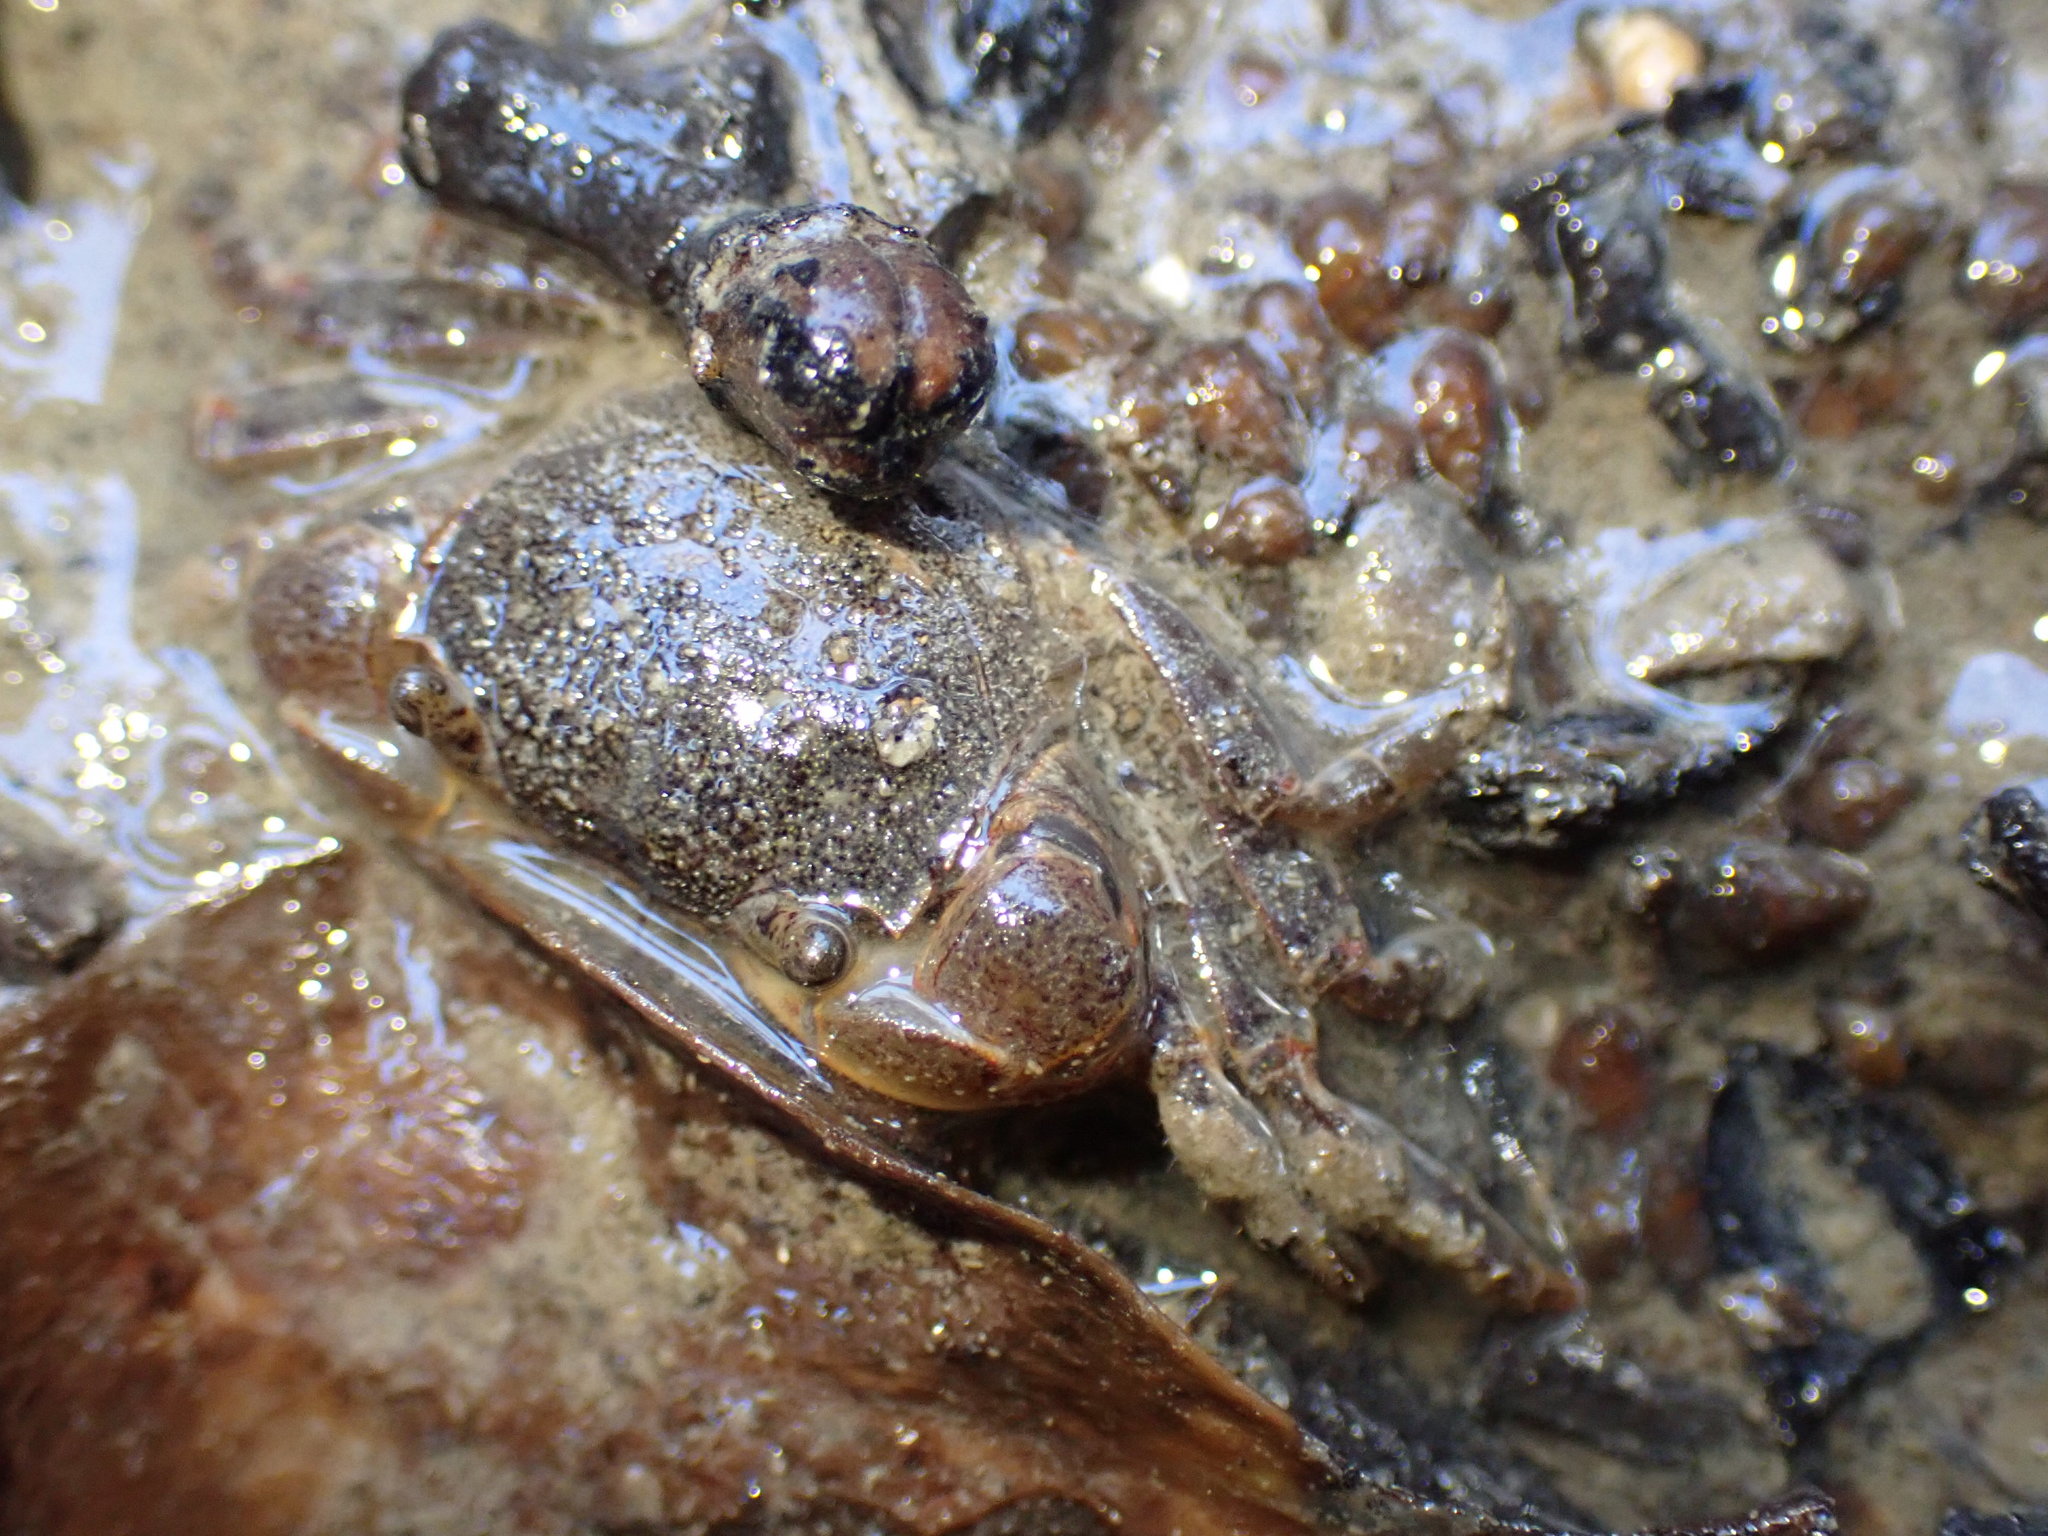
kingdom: Animalia
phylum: Arthropoda
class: Malacostraca
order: Decapoda
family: Varunidae
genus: Austrohelice
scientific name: Austrohelice crassa
